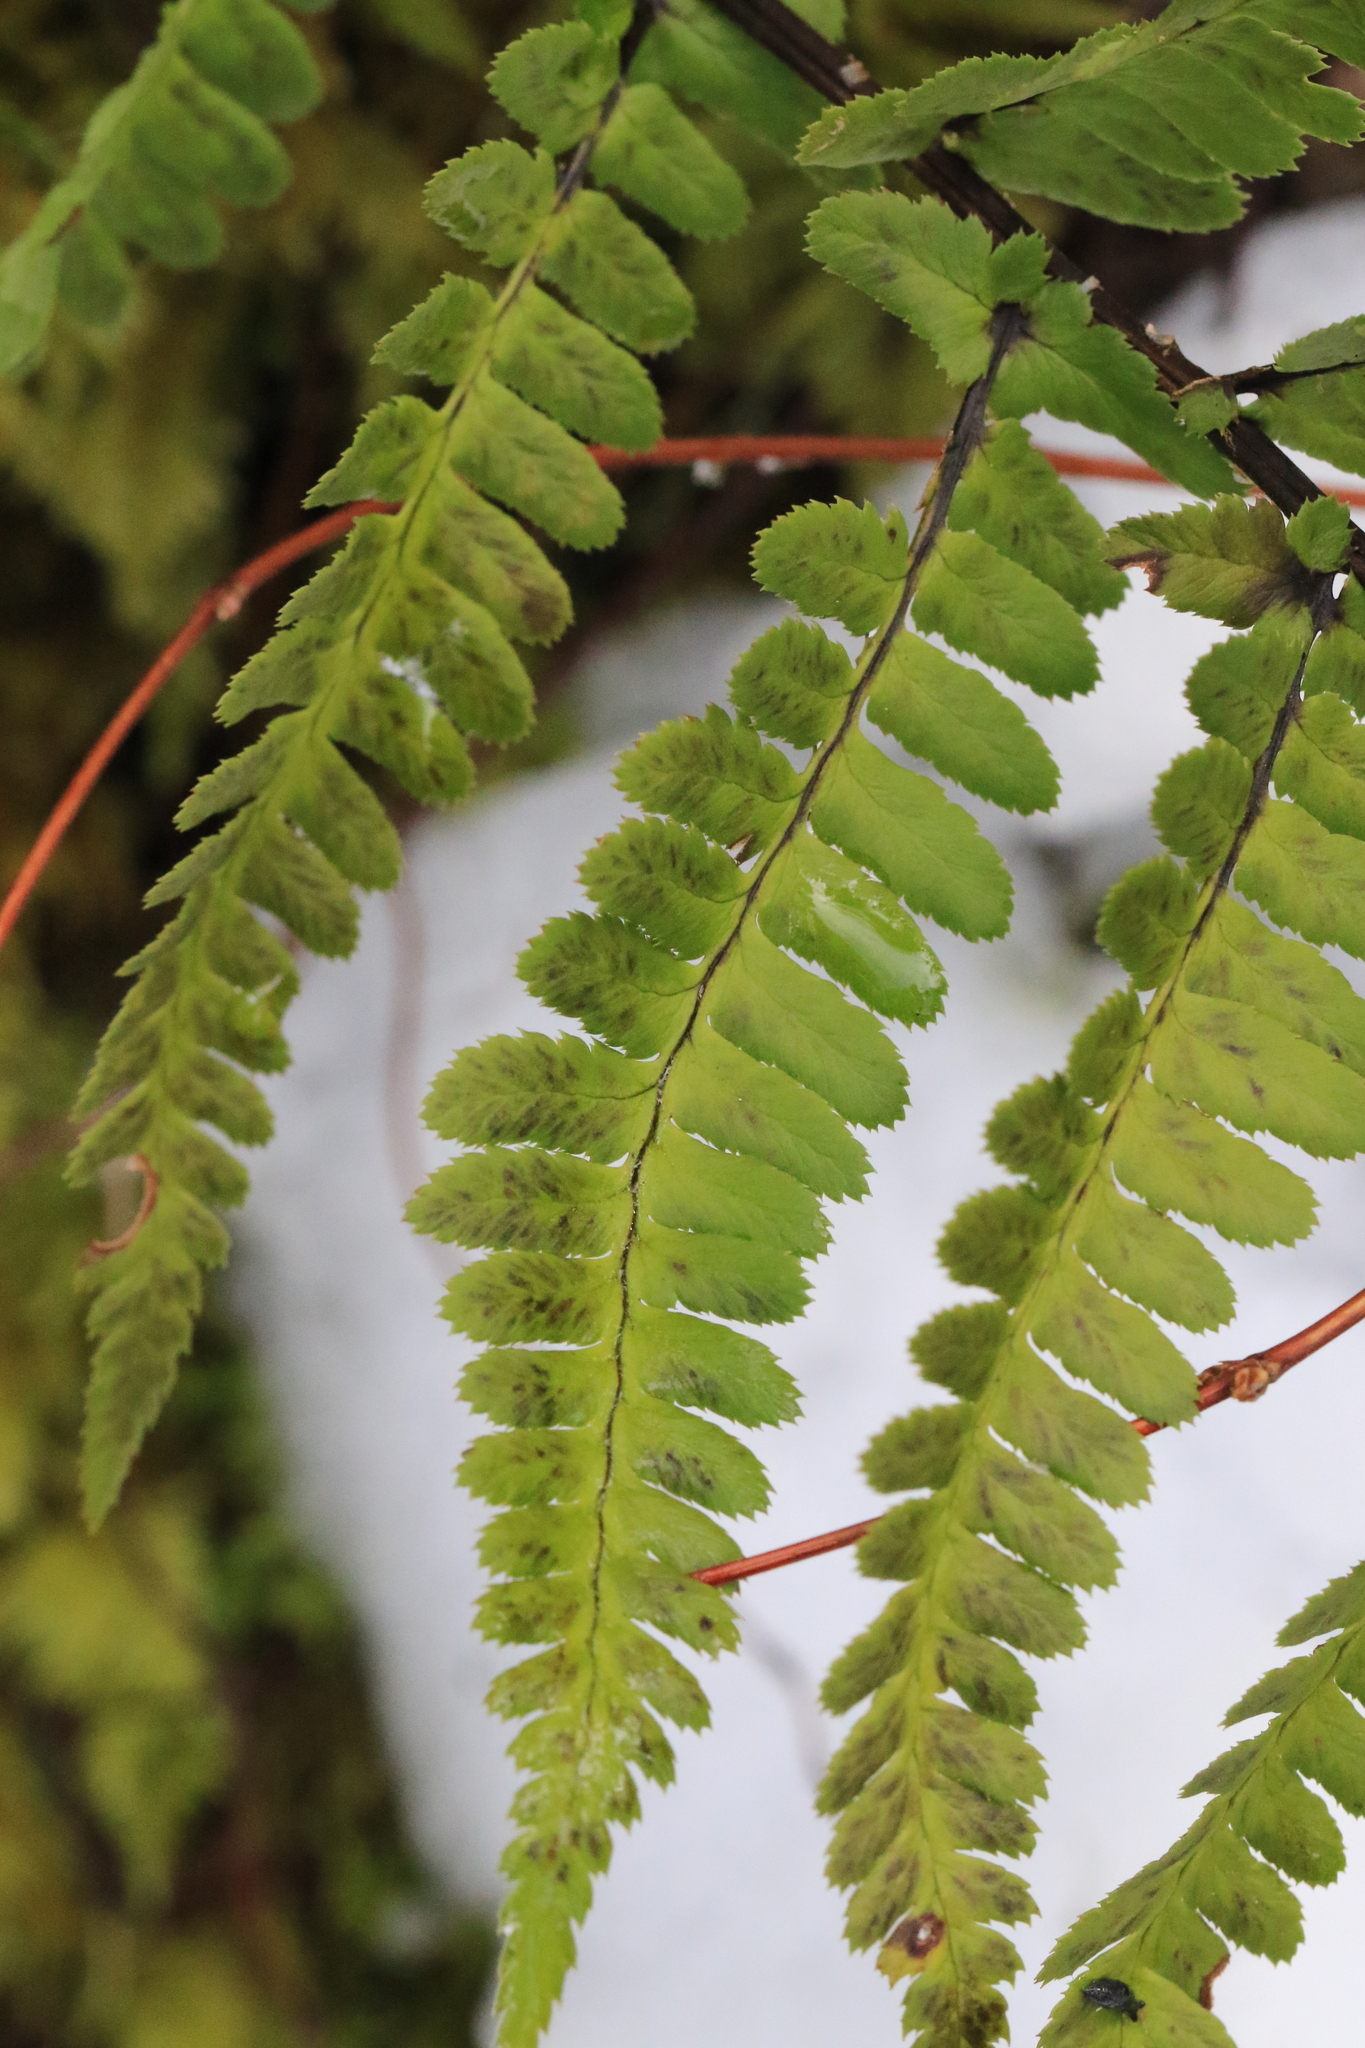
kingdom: Plantae
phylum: Tracheophyta
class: Polypodiopsida
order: Polypodiales
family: Dryopteridaceae
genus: Dryopteris
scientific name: Dryopteris arguta
